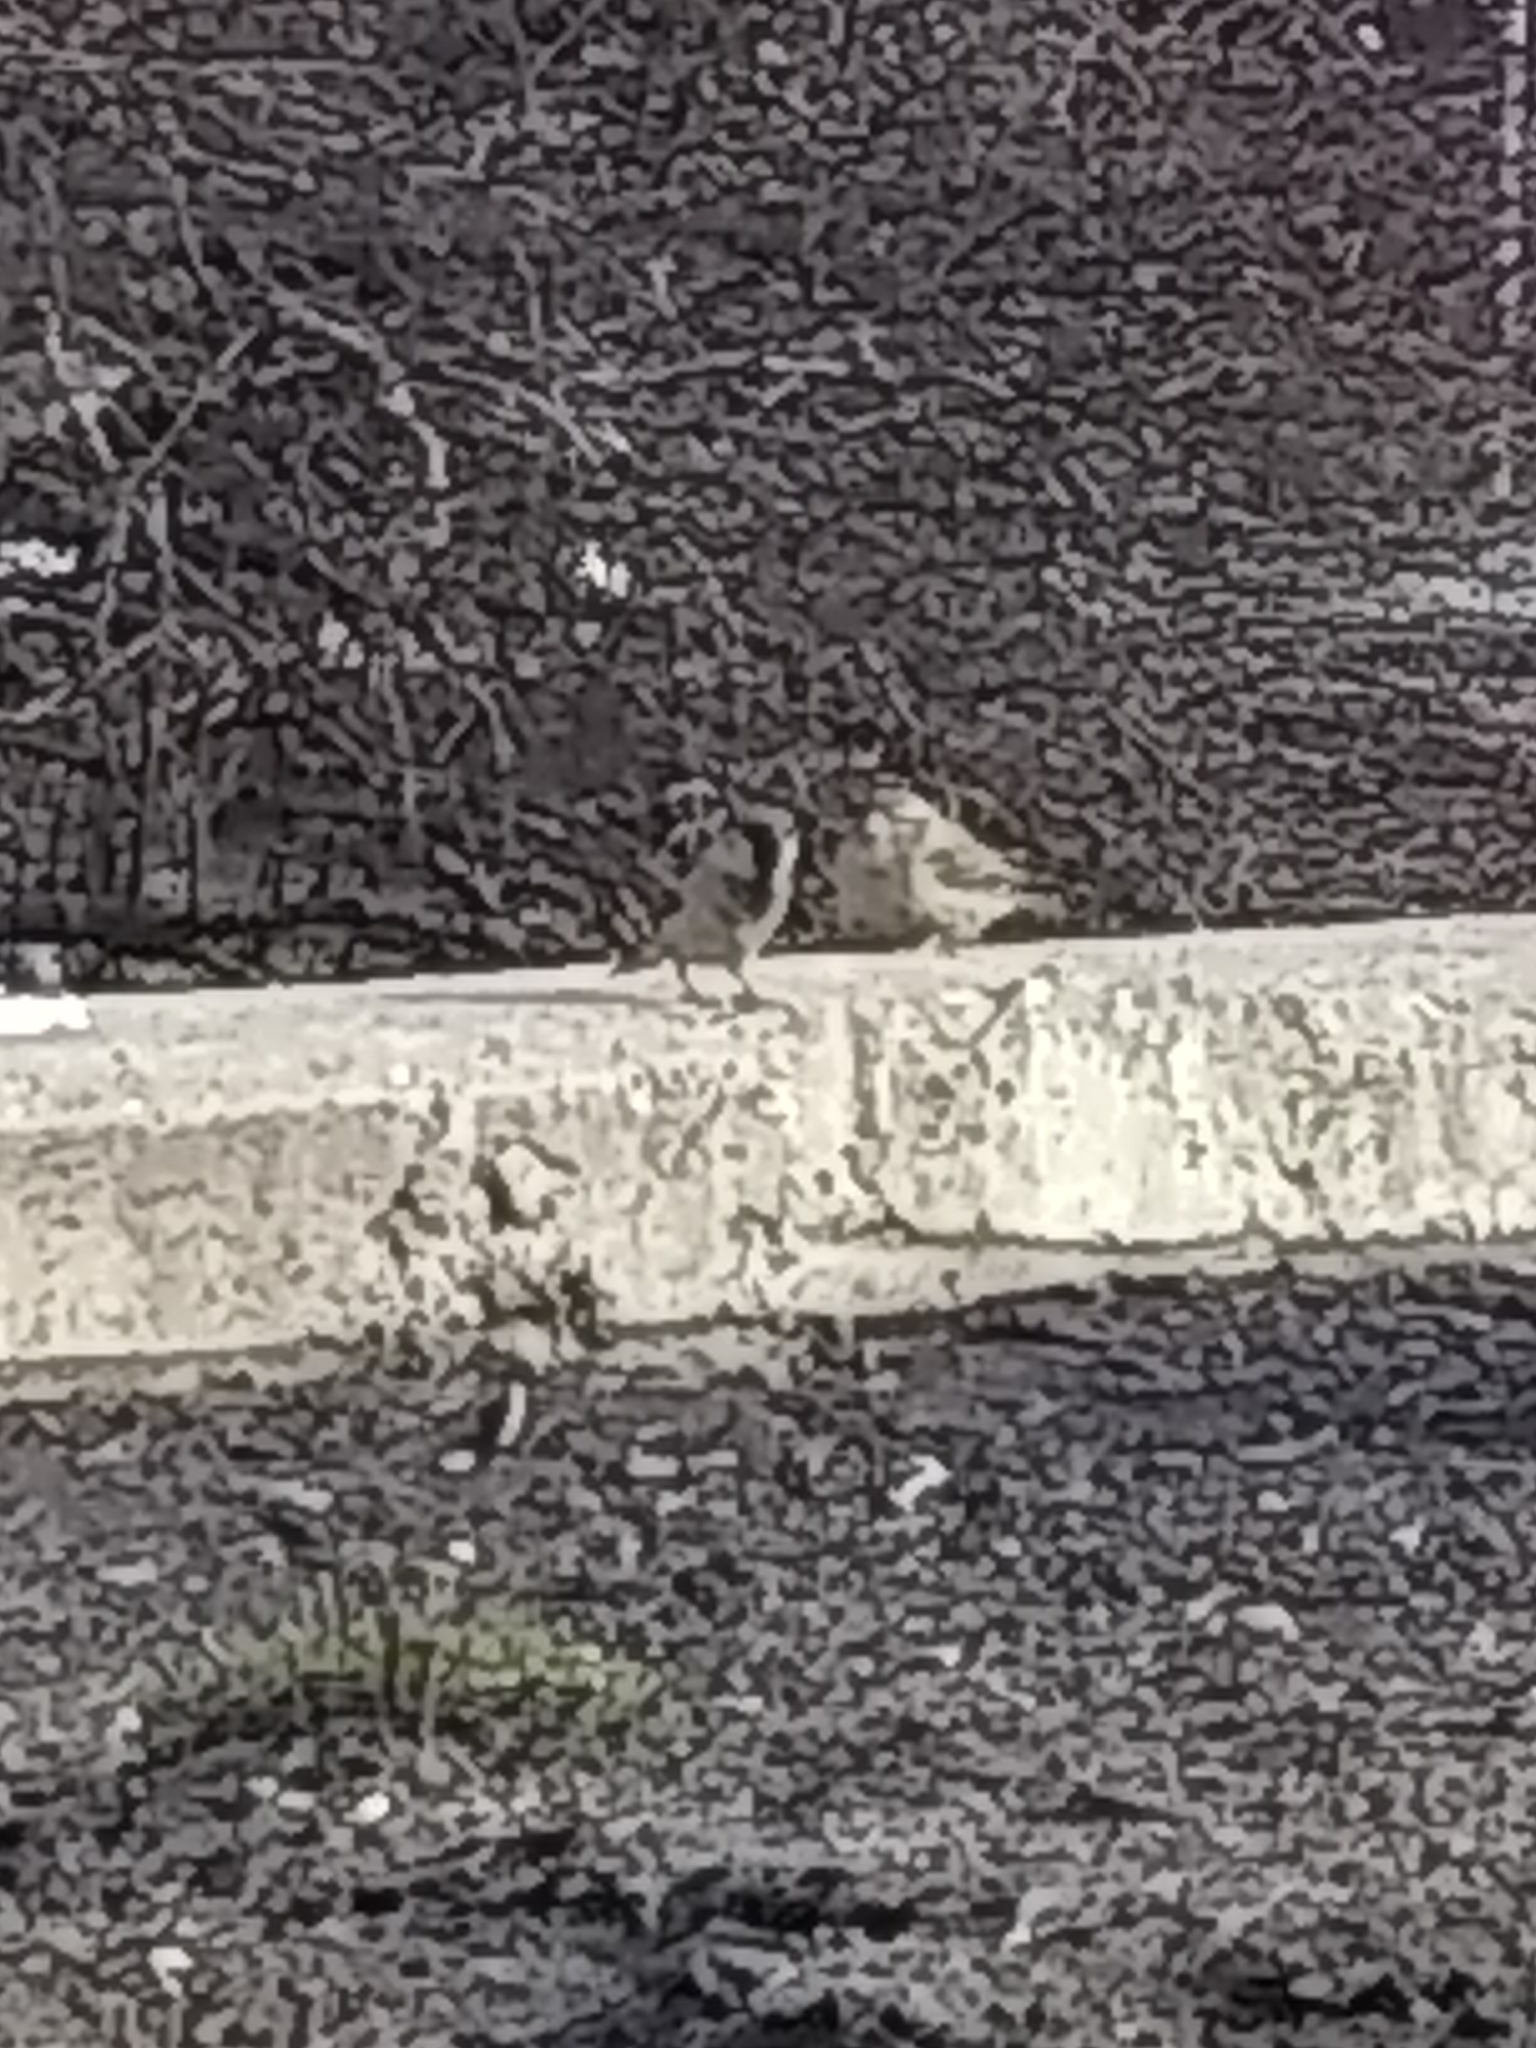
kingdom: Animalia
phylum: Chordata
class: Aves
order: Passeriformes
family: Passeridae
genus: Passer
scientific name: Passer domesticus
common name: House sparrow
